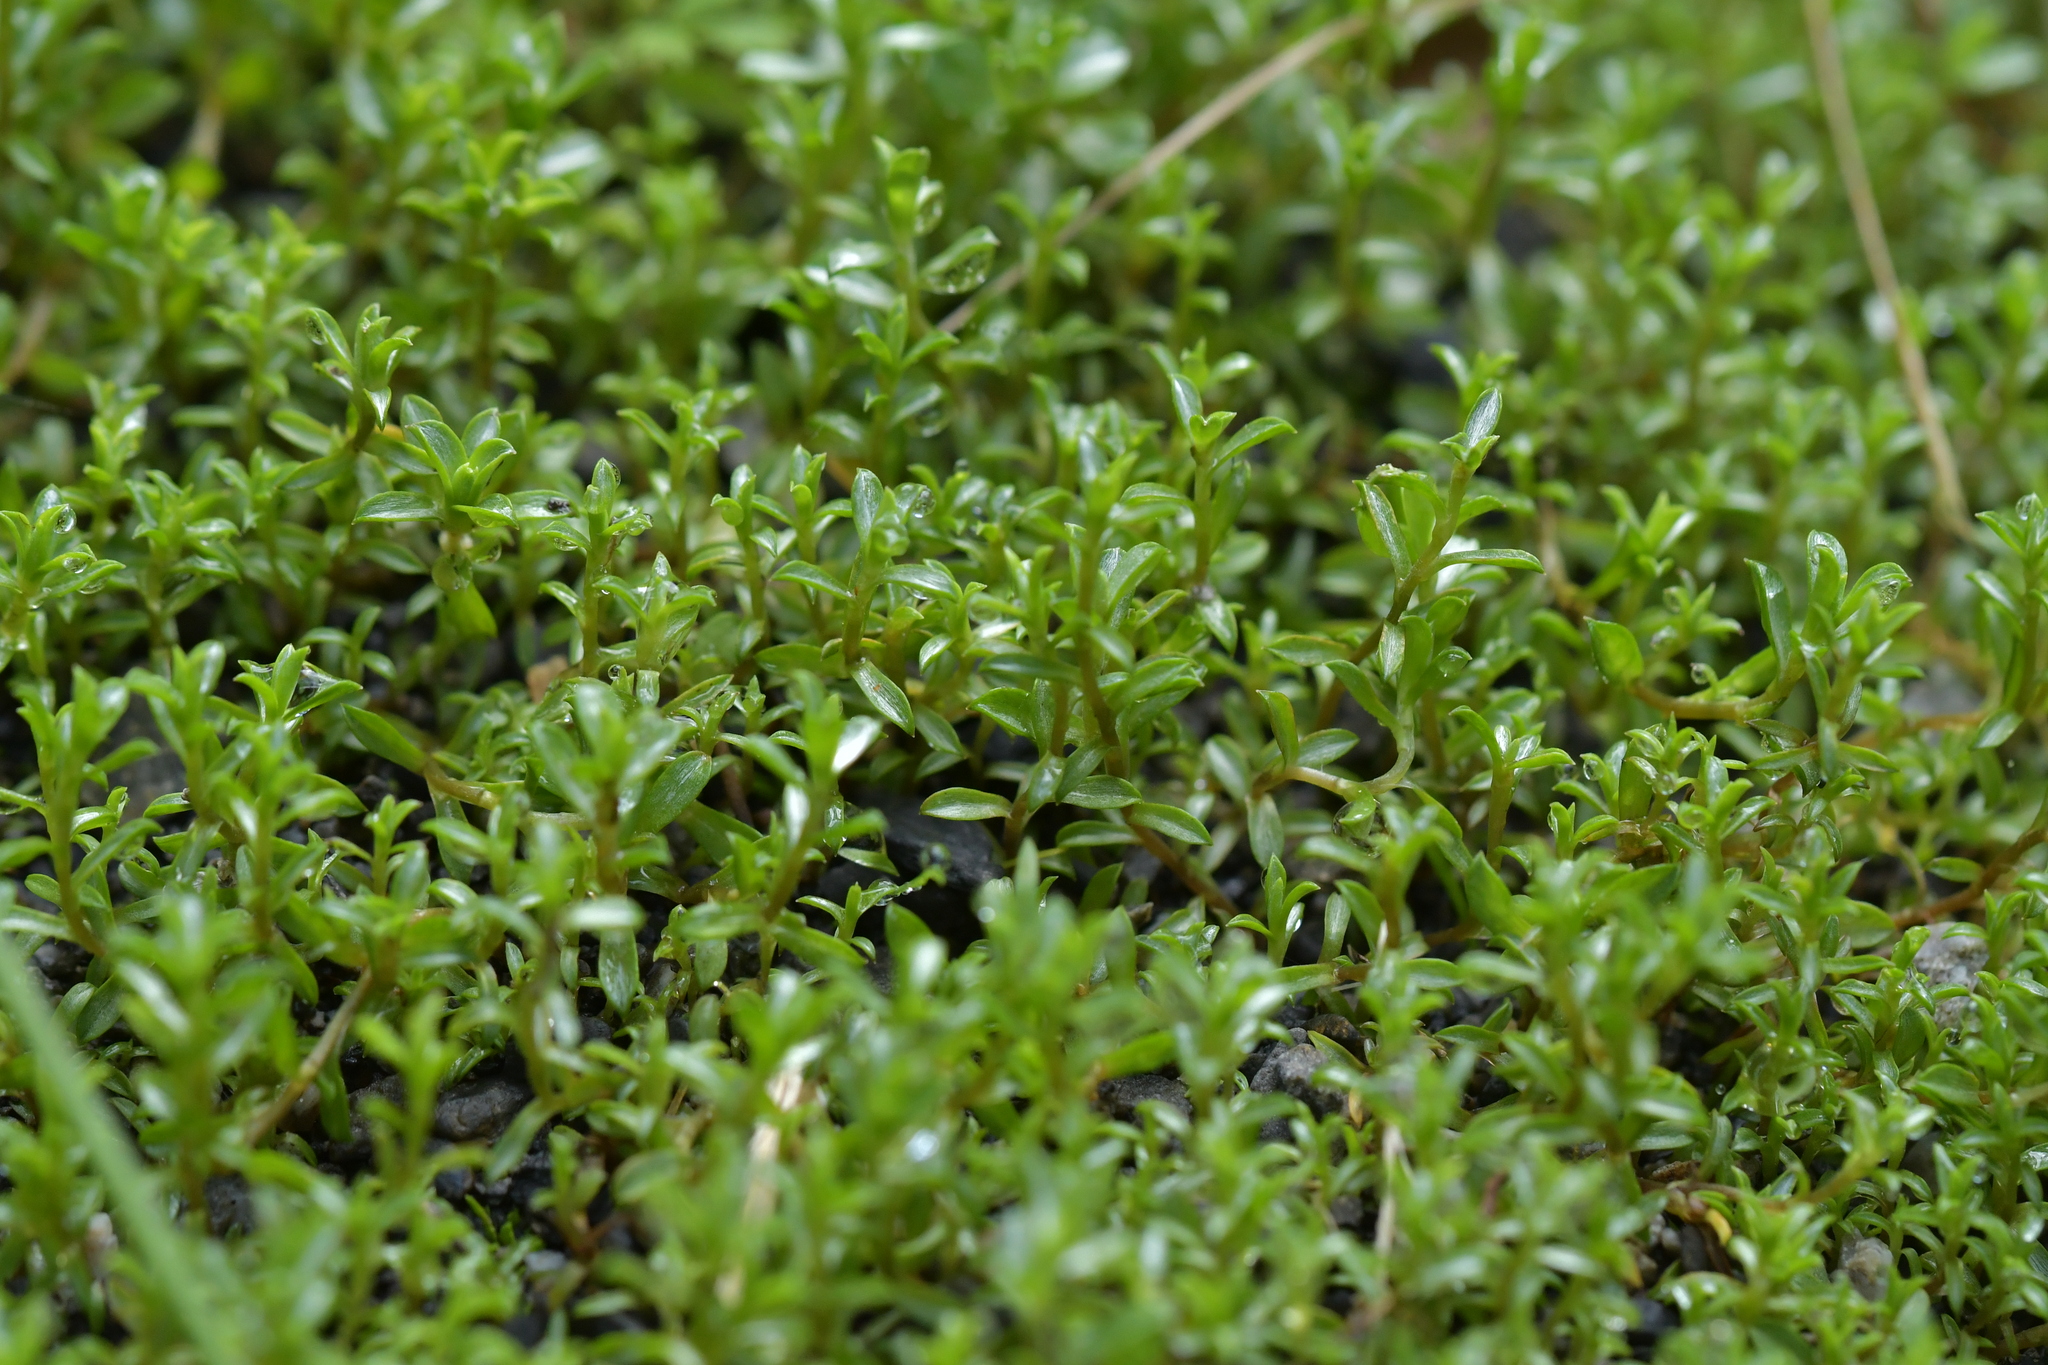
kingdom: Plantae
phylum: Tracheophyta
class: Magnoliopsida
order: Asterales
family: Asteraceae
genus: Raoulia
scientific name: Raoulia tenuicaulis
